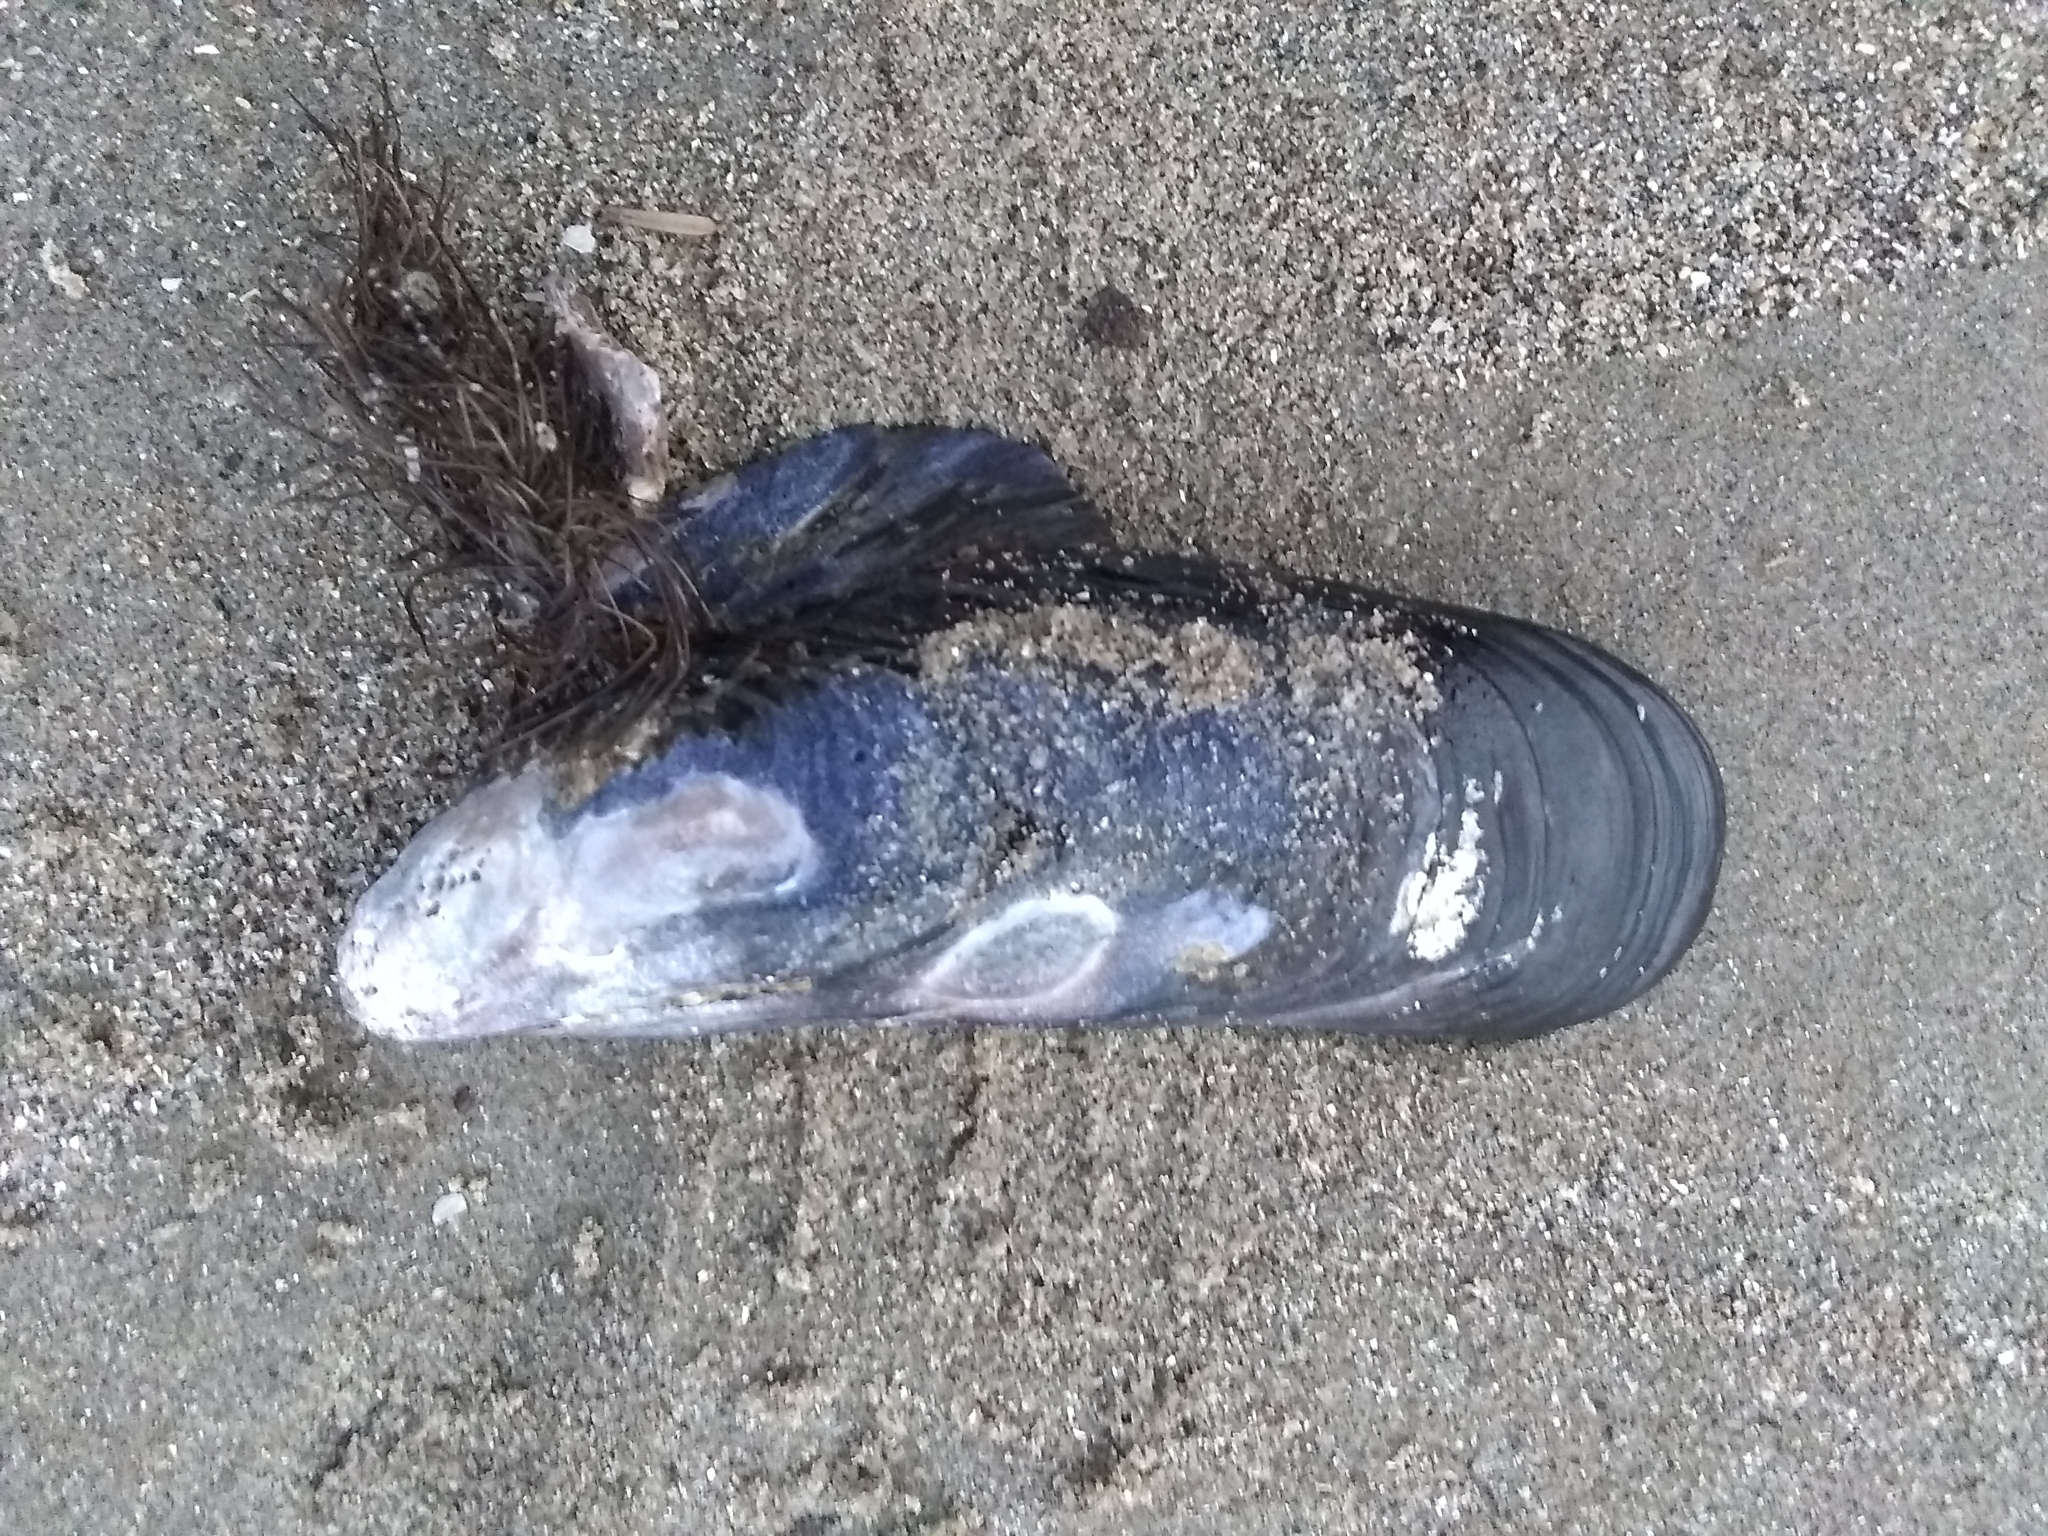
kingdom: Animalia
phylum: Mollusca
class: Bivalvia
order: Mytilida
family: Mytilidae
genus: Mytilus
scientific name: Mytilus californianus
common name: California mussel
